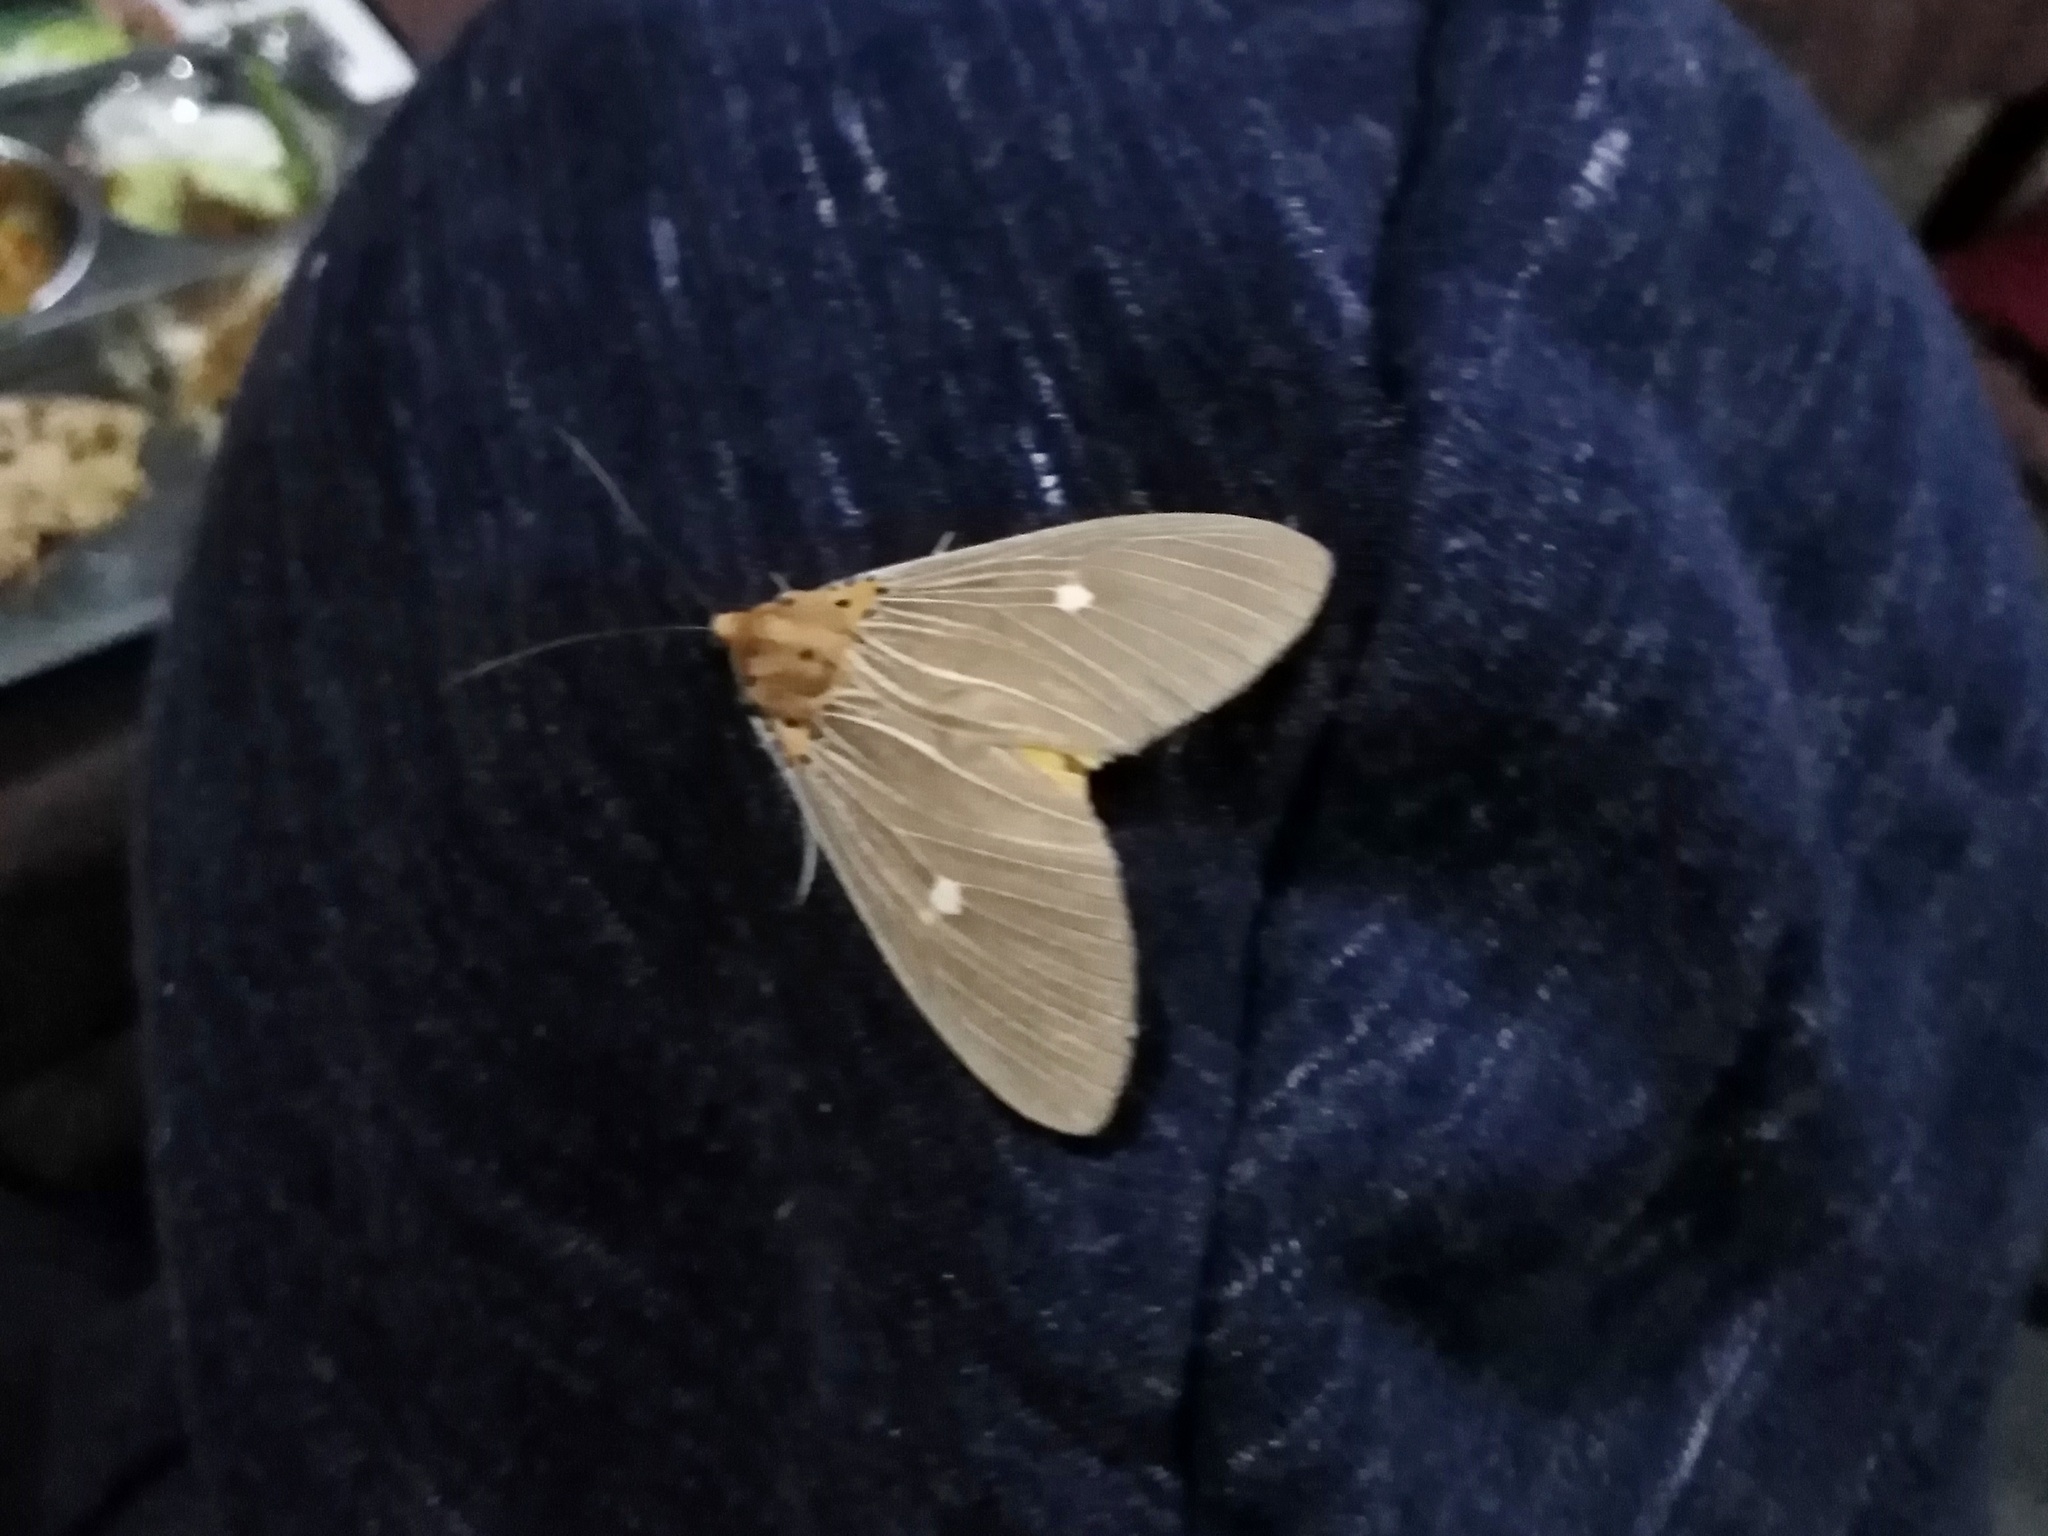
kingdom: Animalia
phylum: Arthropoda
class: Insecta
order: Lepidoptera
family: Erebidae
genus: Asota
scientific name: Asota caricae
